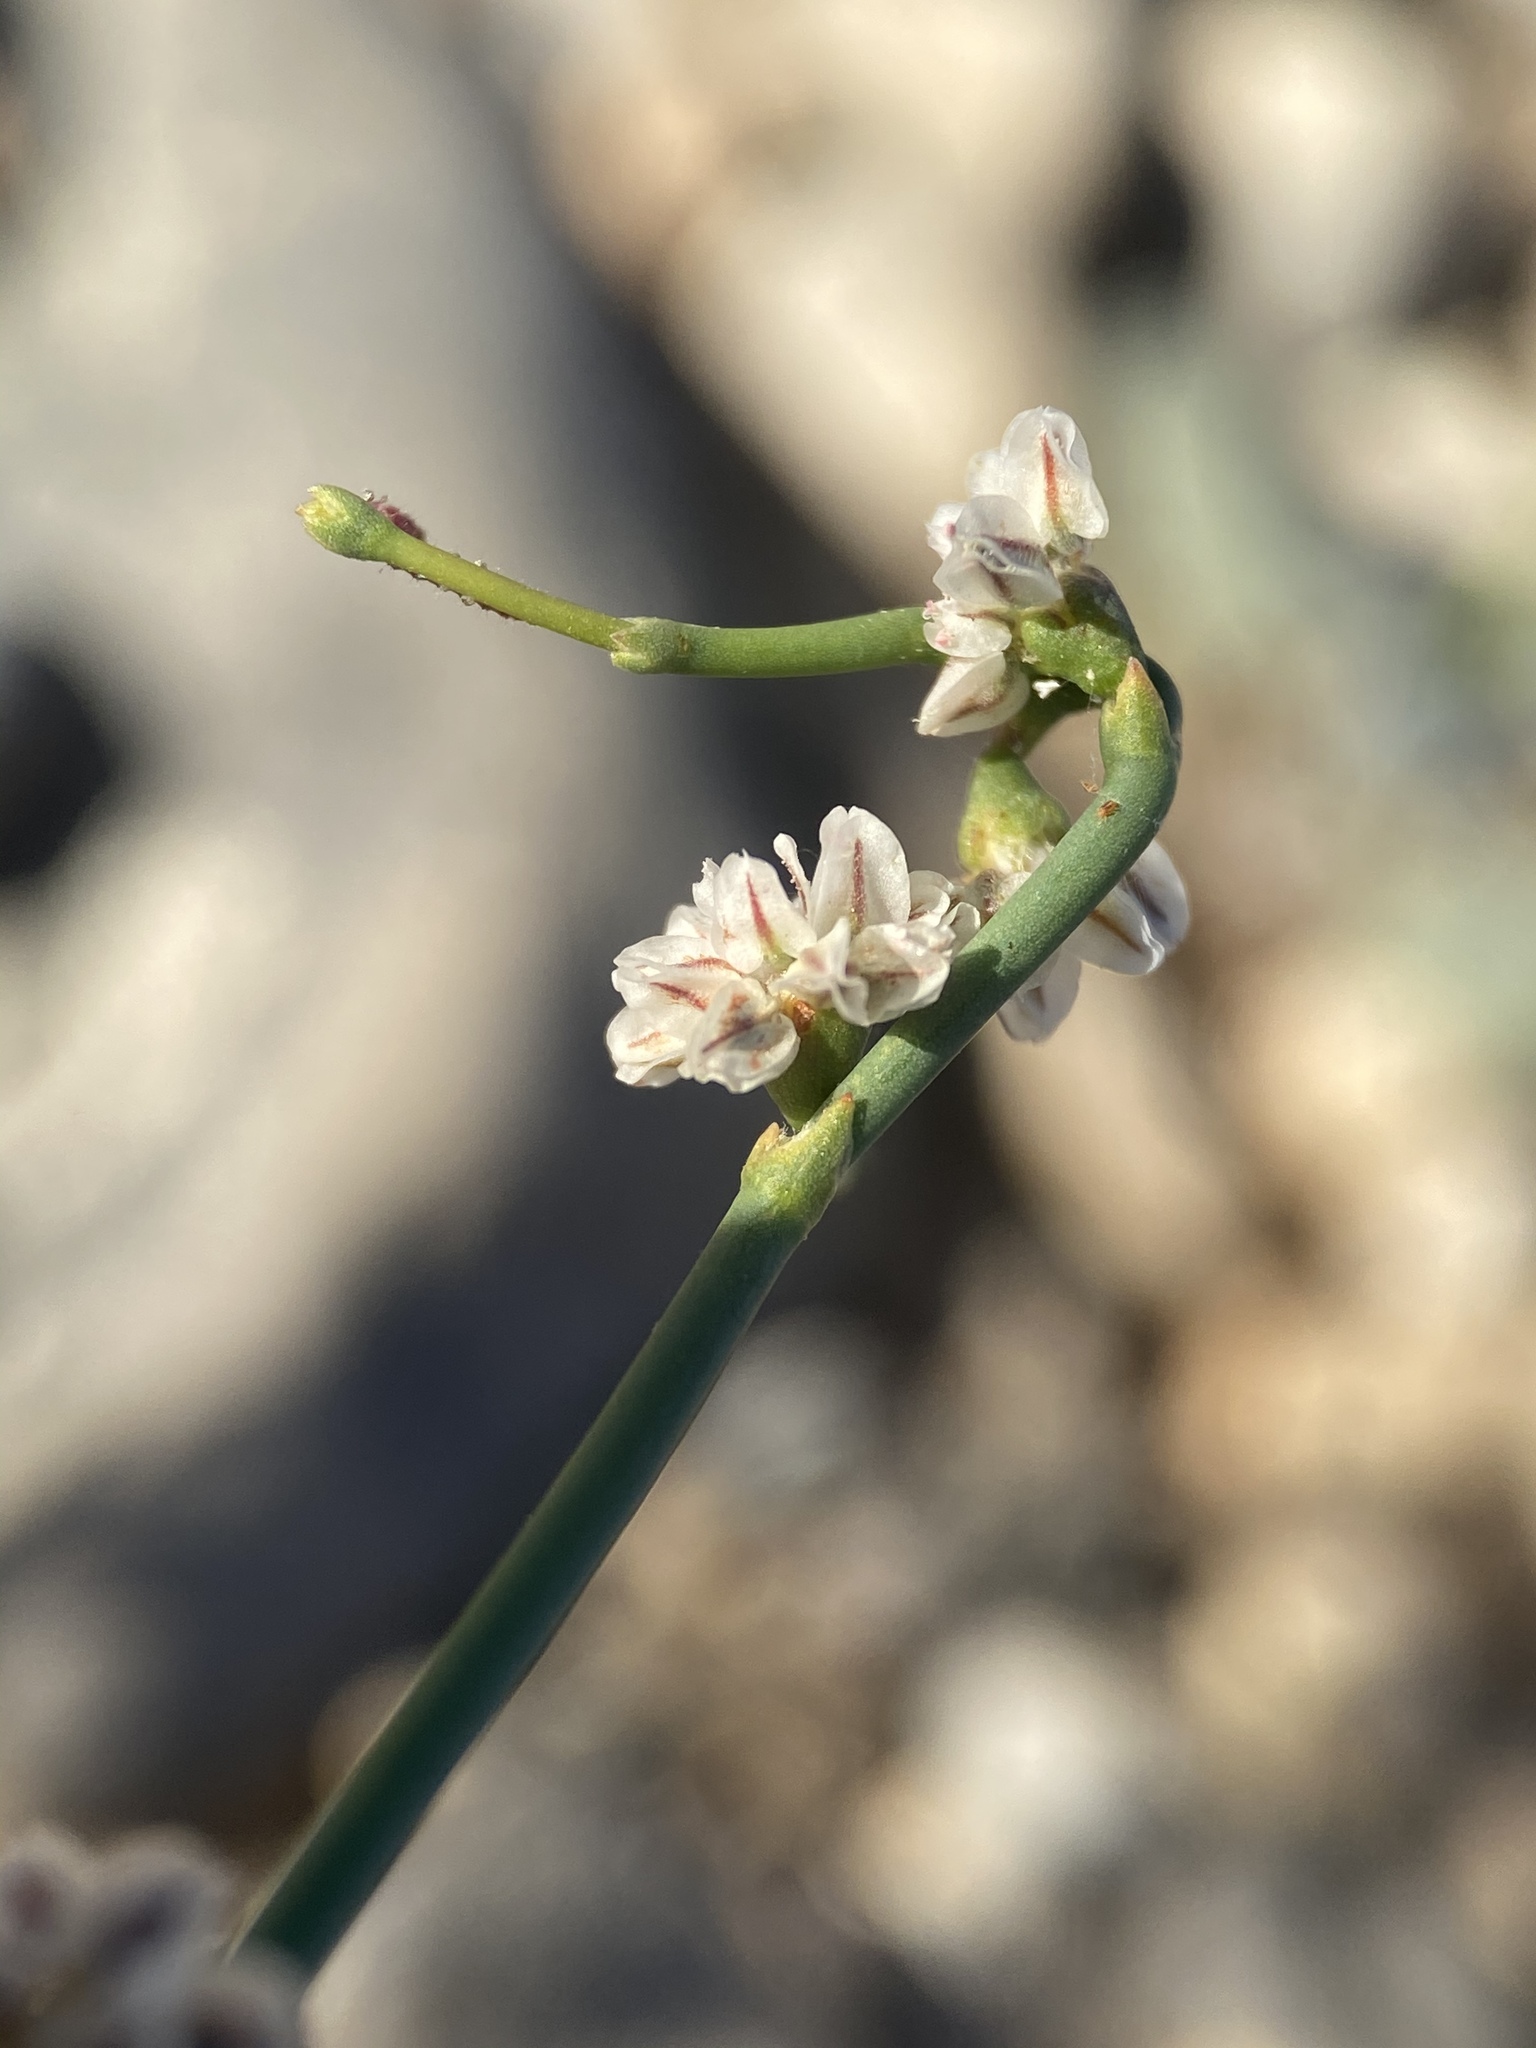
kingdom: Plantae
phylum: Tracheophyta
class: Magnoliopsida
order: Caryophyllales
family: Polygonaceae
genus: Eriogonum
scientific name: Eriogonum deflexum
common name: Skeleton-weed
